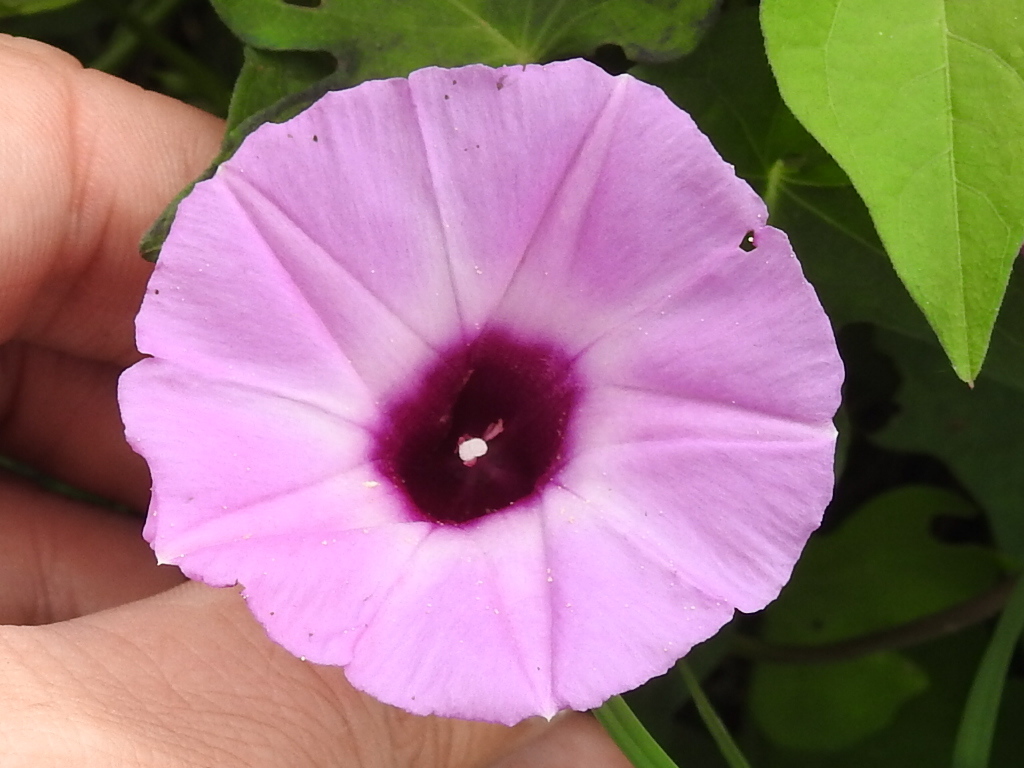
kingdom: Plantae
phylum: Tracheophyta
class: Magnoliopsida
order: Solanales
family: Convolvulaceae
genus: Ipomoea
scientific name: Ipomoea cordatotriloba
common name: Cotton morning glory
